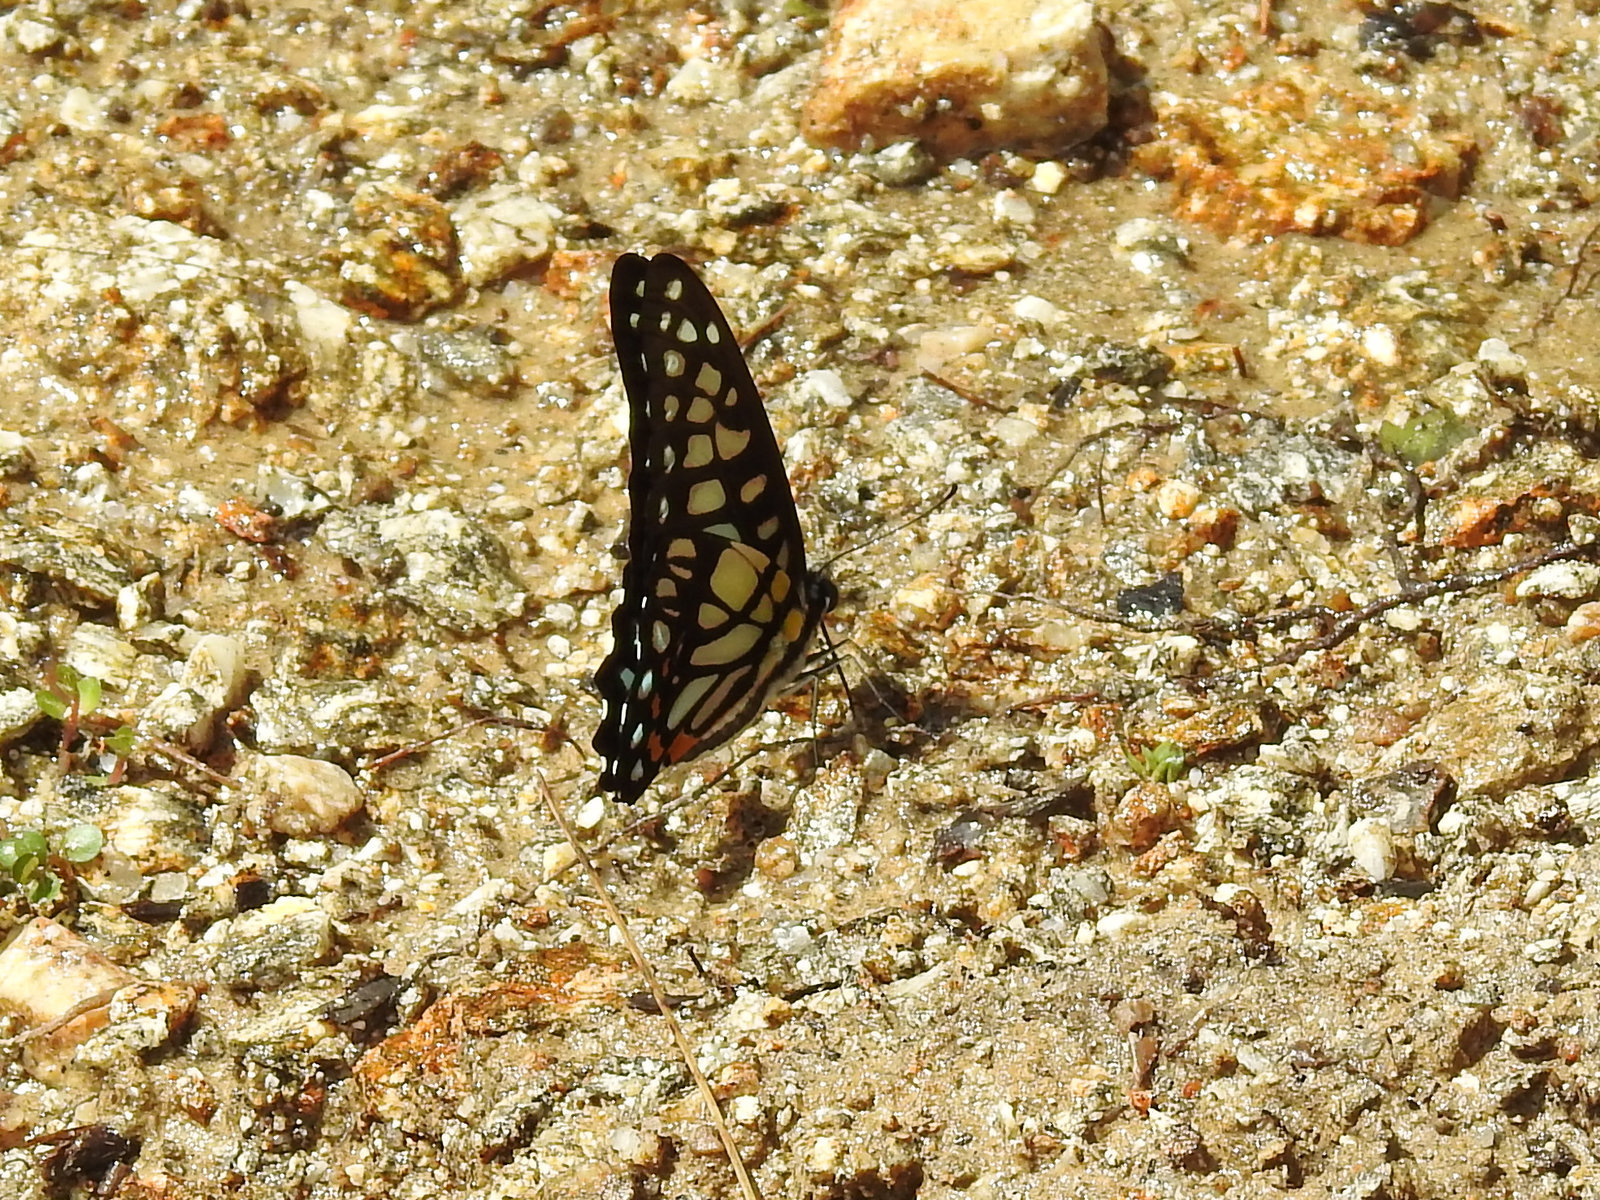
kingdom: Animalia
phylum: Arthropoda
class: Insecta
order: Lepidoptera
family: Papilionidae
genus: Graphium
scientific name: Graphium chironides
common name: Veined jay
